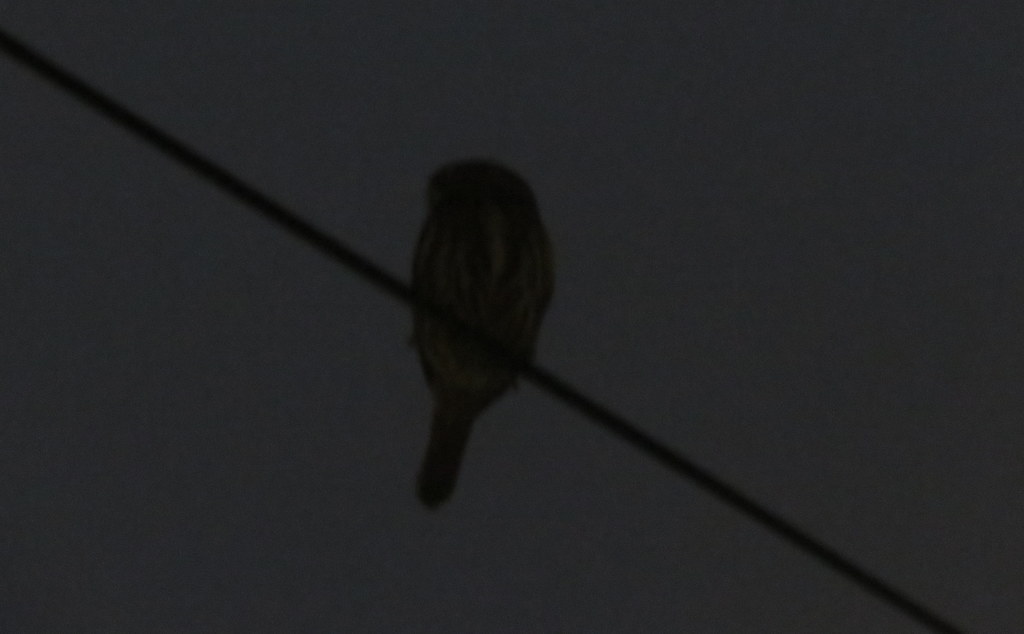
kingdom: Animalia
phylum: Chordata
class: Aves
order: Strigiformes
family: Strigidae
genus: Glaucidium
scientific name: Glaucidium brasilianum
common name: Ferruginous pygmy-owl
